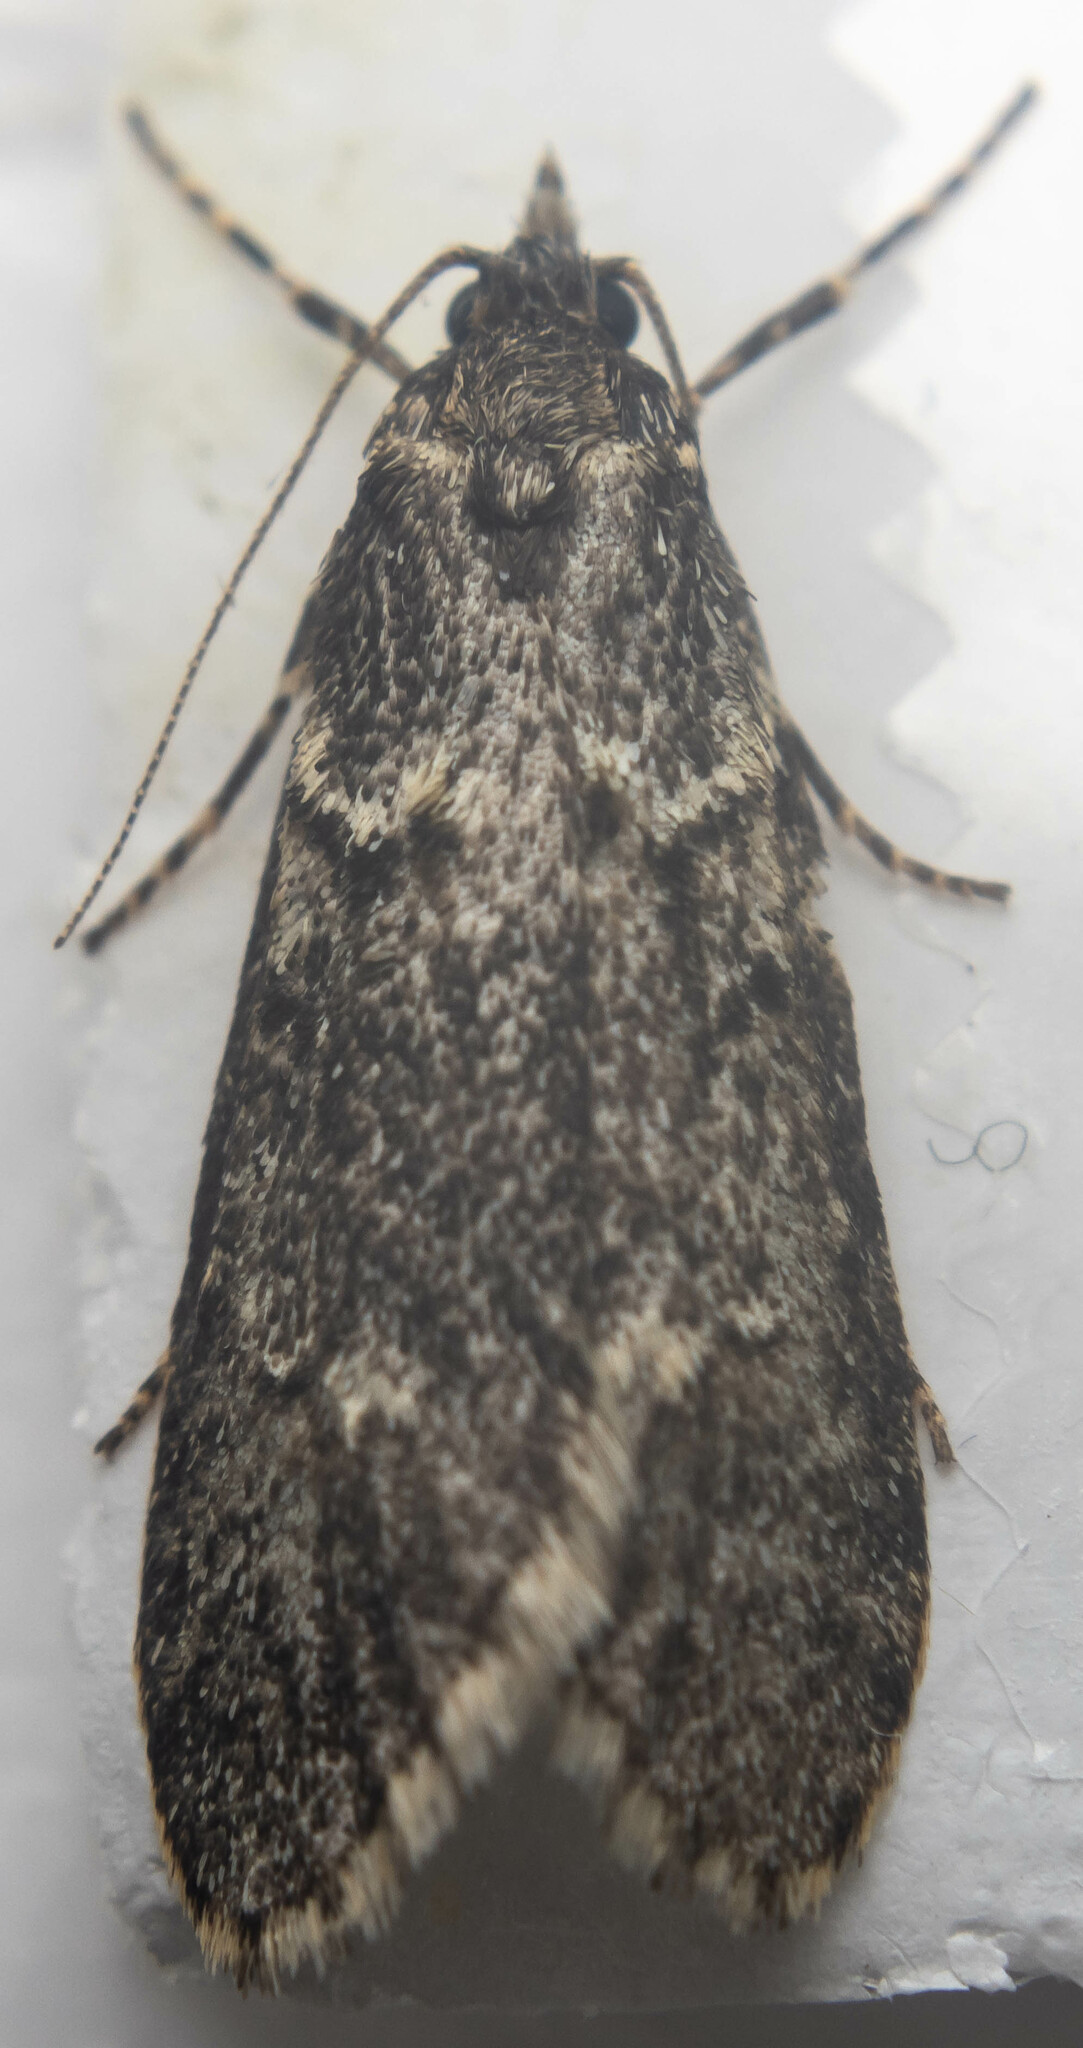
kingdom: Animalia
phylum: Arthropoda
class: Insecta
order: Lepidoptera
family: Lypusidae
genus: Diurnea
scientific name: Diurnea fagella
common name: March tubic
